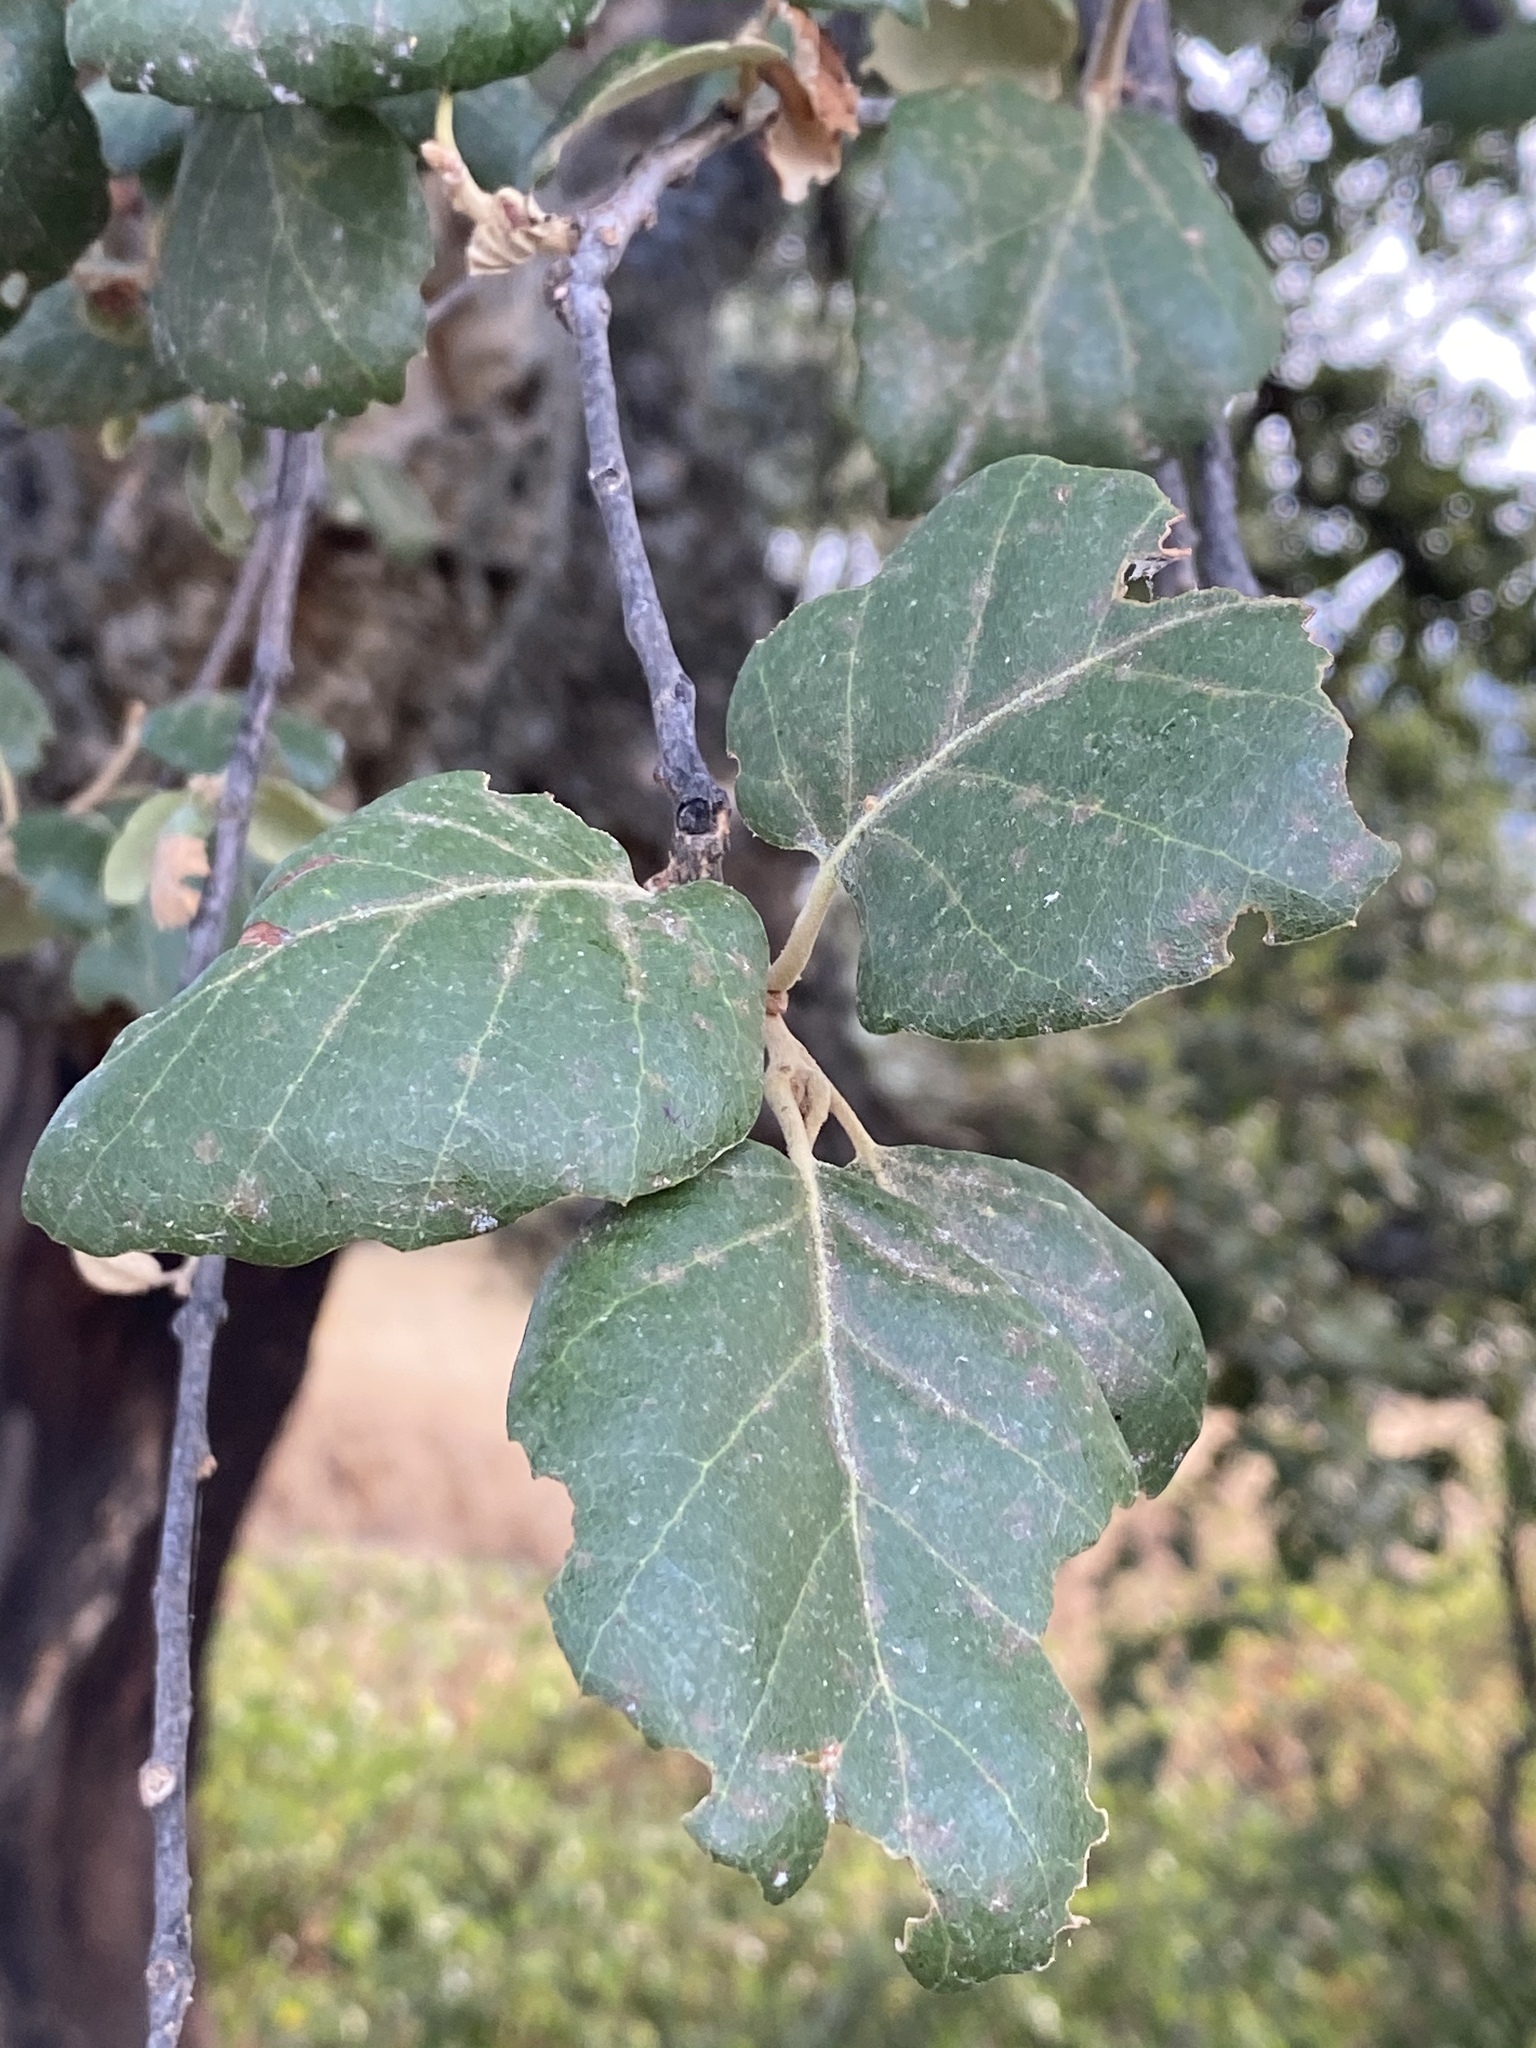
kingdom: Plantae
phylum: Tracheophyta
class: Magnoliopsida
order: Fagales
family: Fagaceae
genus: Quercus
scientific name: Quercus suber
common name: Cork oak
